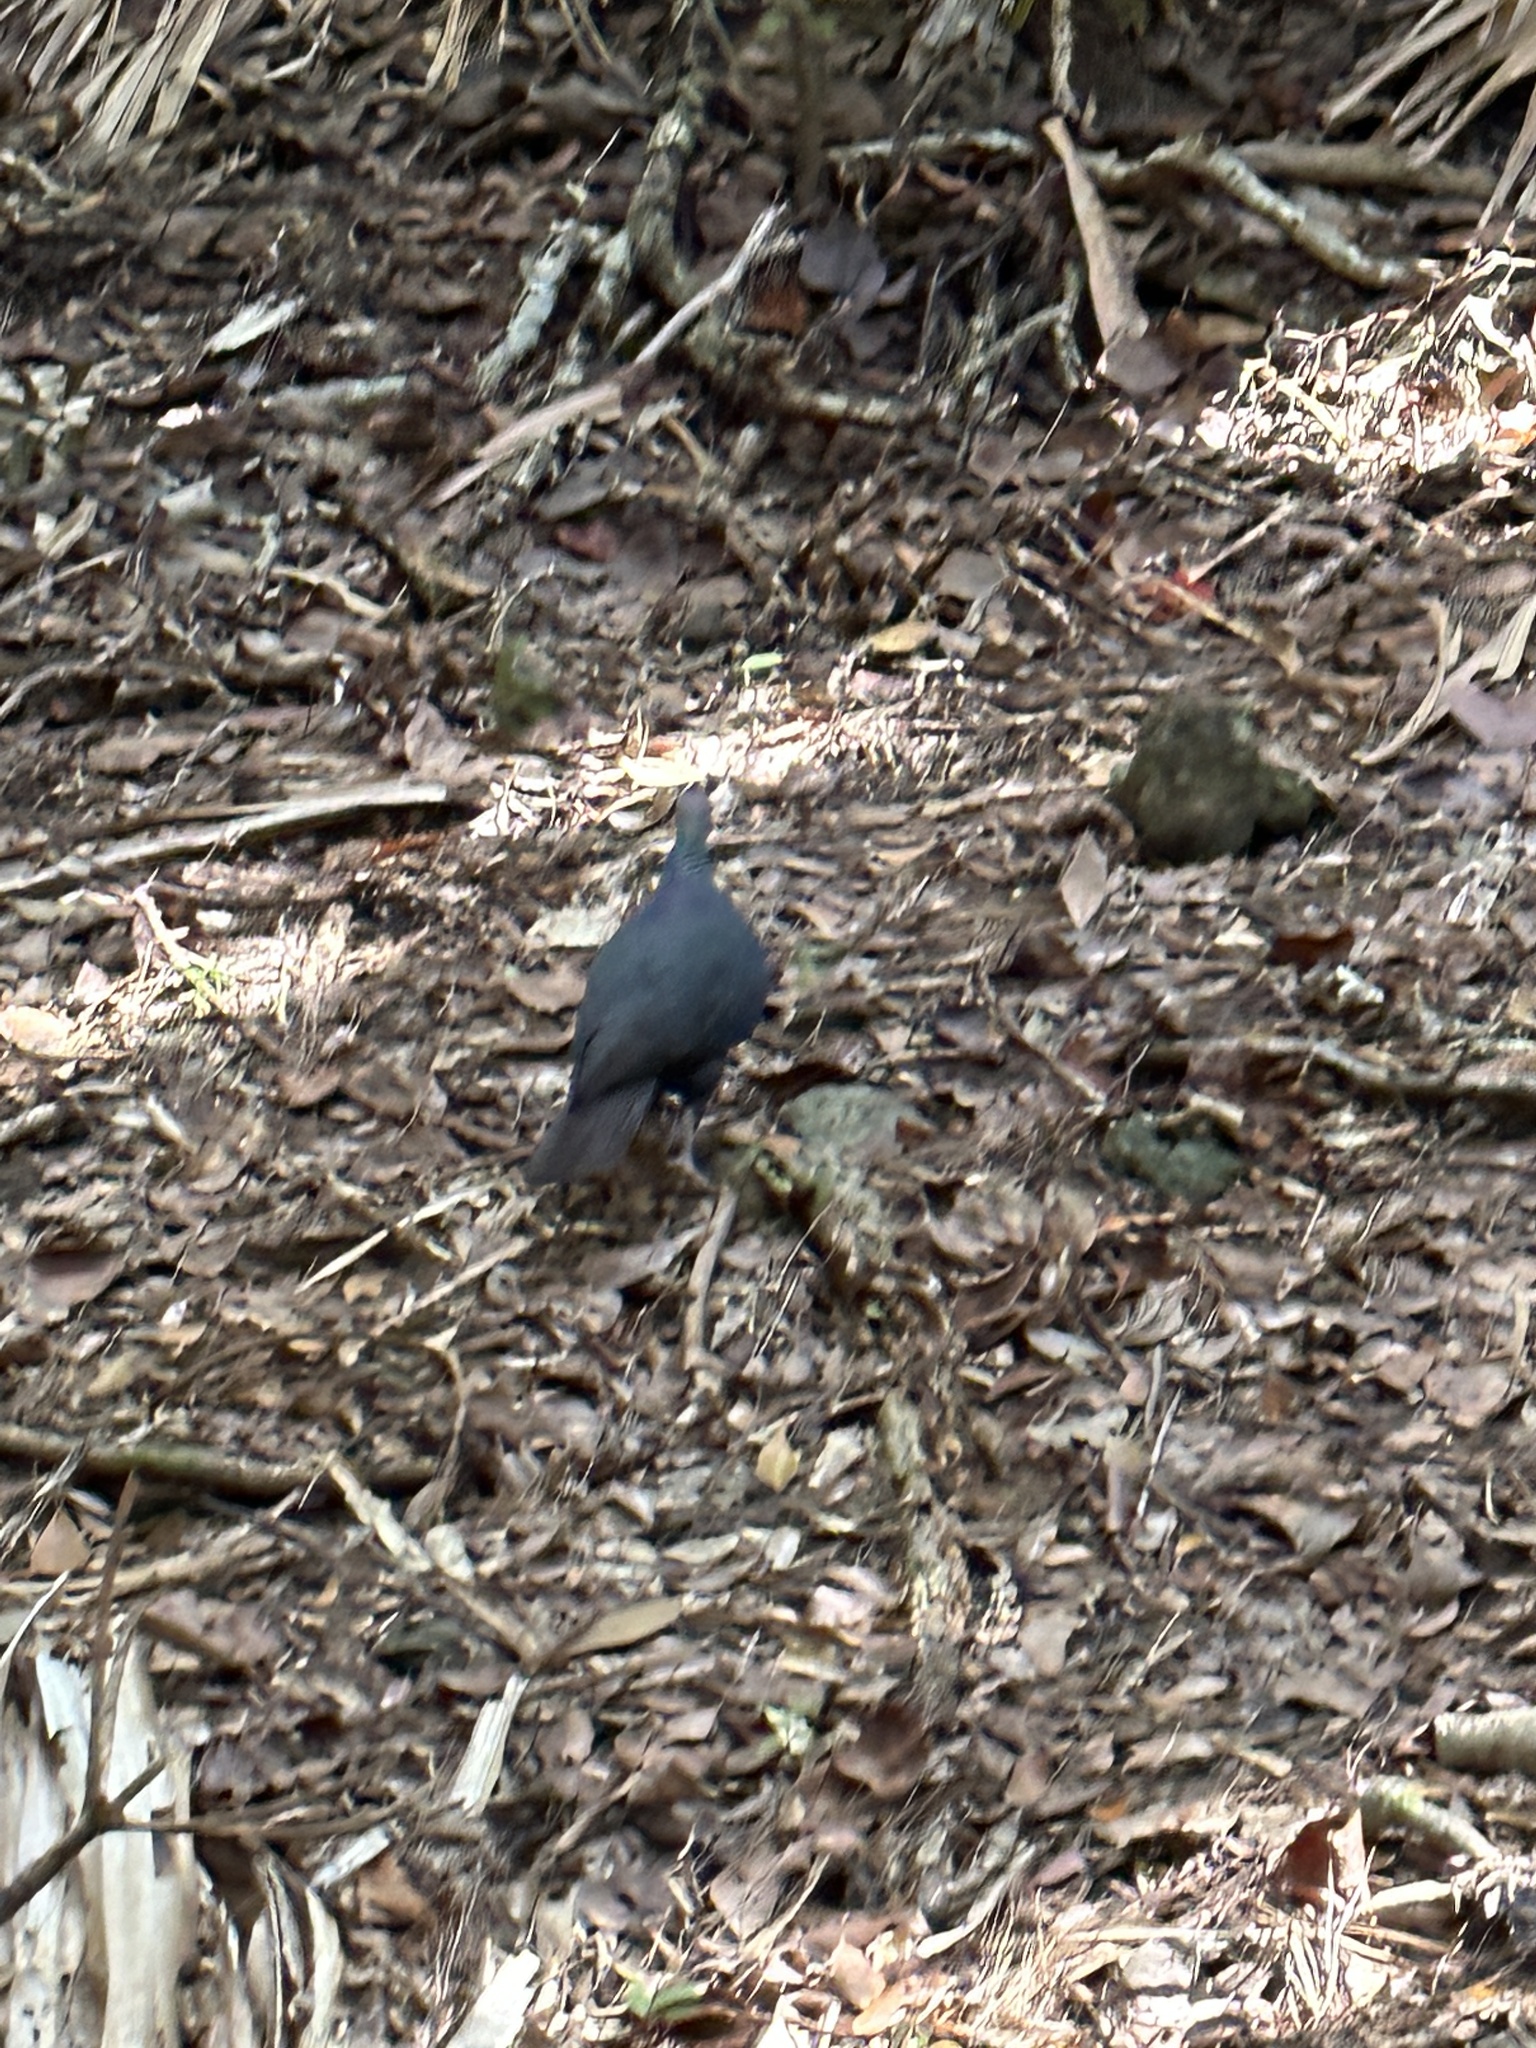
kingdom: Animalia
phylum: Chordata
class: Aves
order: Columbiformes
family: Columbidae
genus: Columba
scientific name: Columba janthina
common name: Japanese wood pigeon
